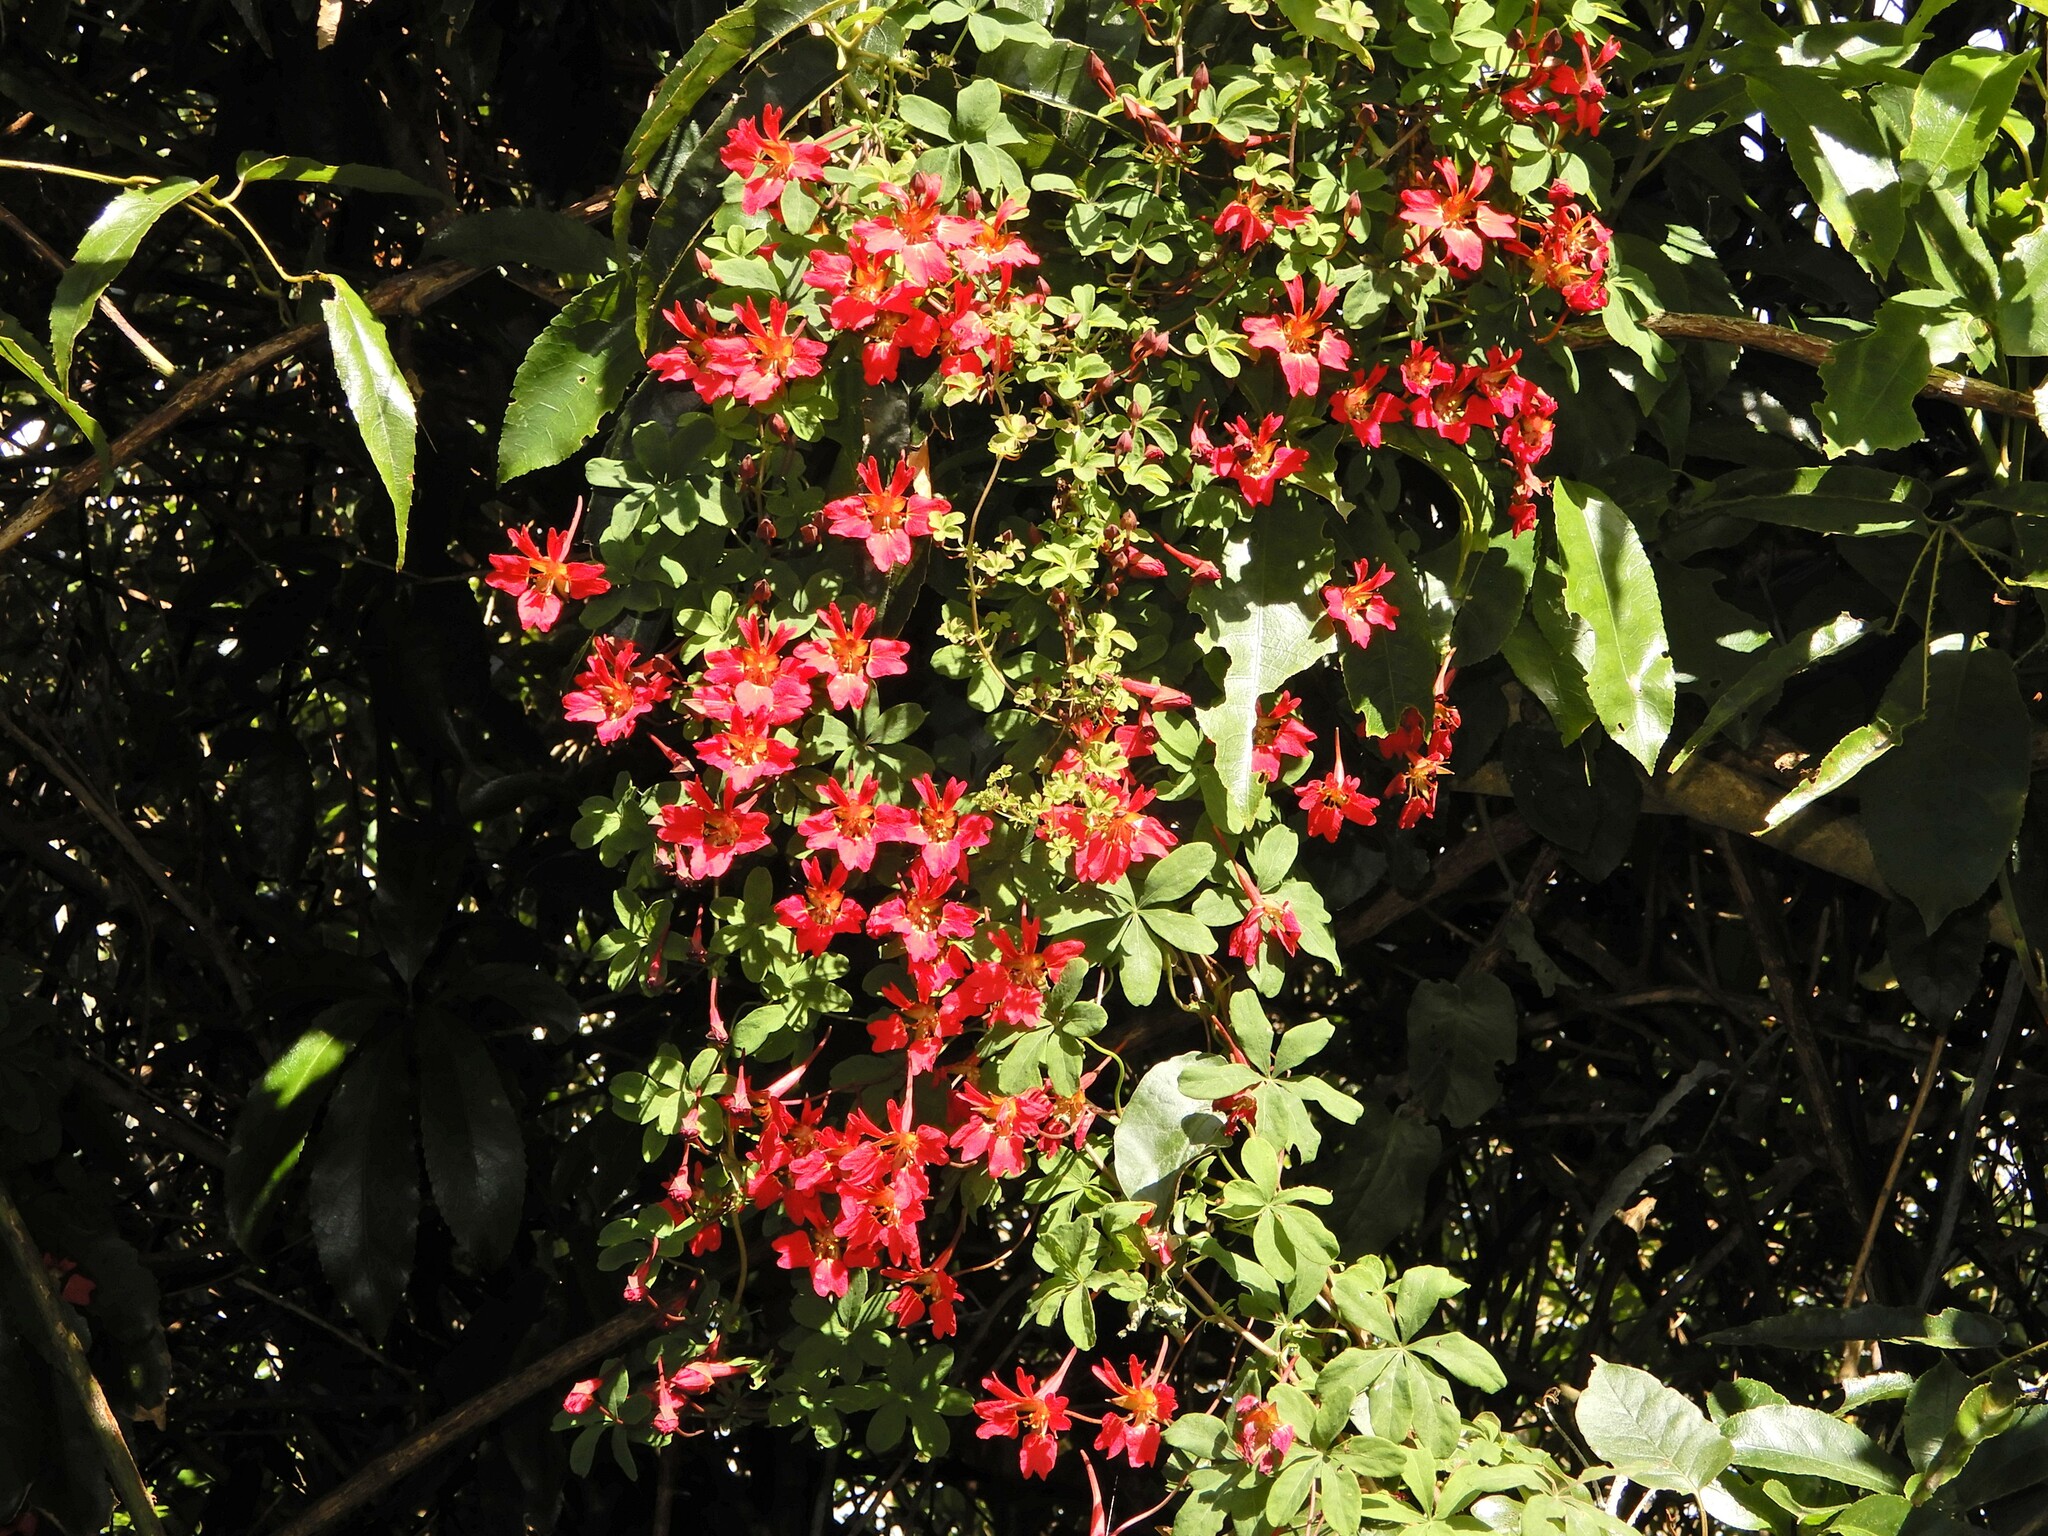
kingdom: Plantae
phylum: Tracheophyta
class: Magnoliopsida
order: Brassicales
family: Tropaeolaceae
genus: Tropaeolum
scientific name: Tropaeolum speciosum
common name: Flame nasturtium
